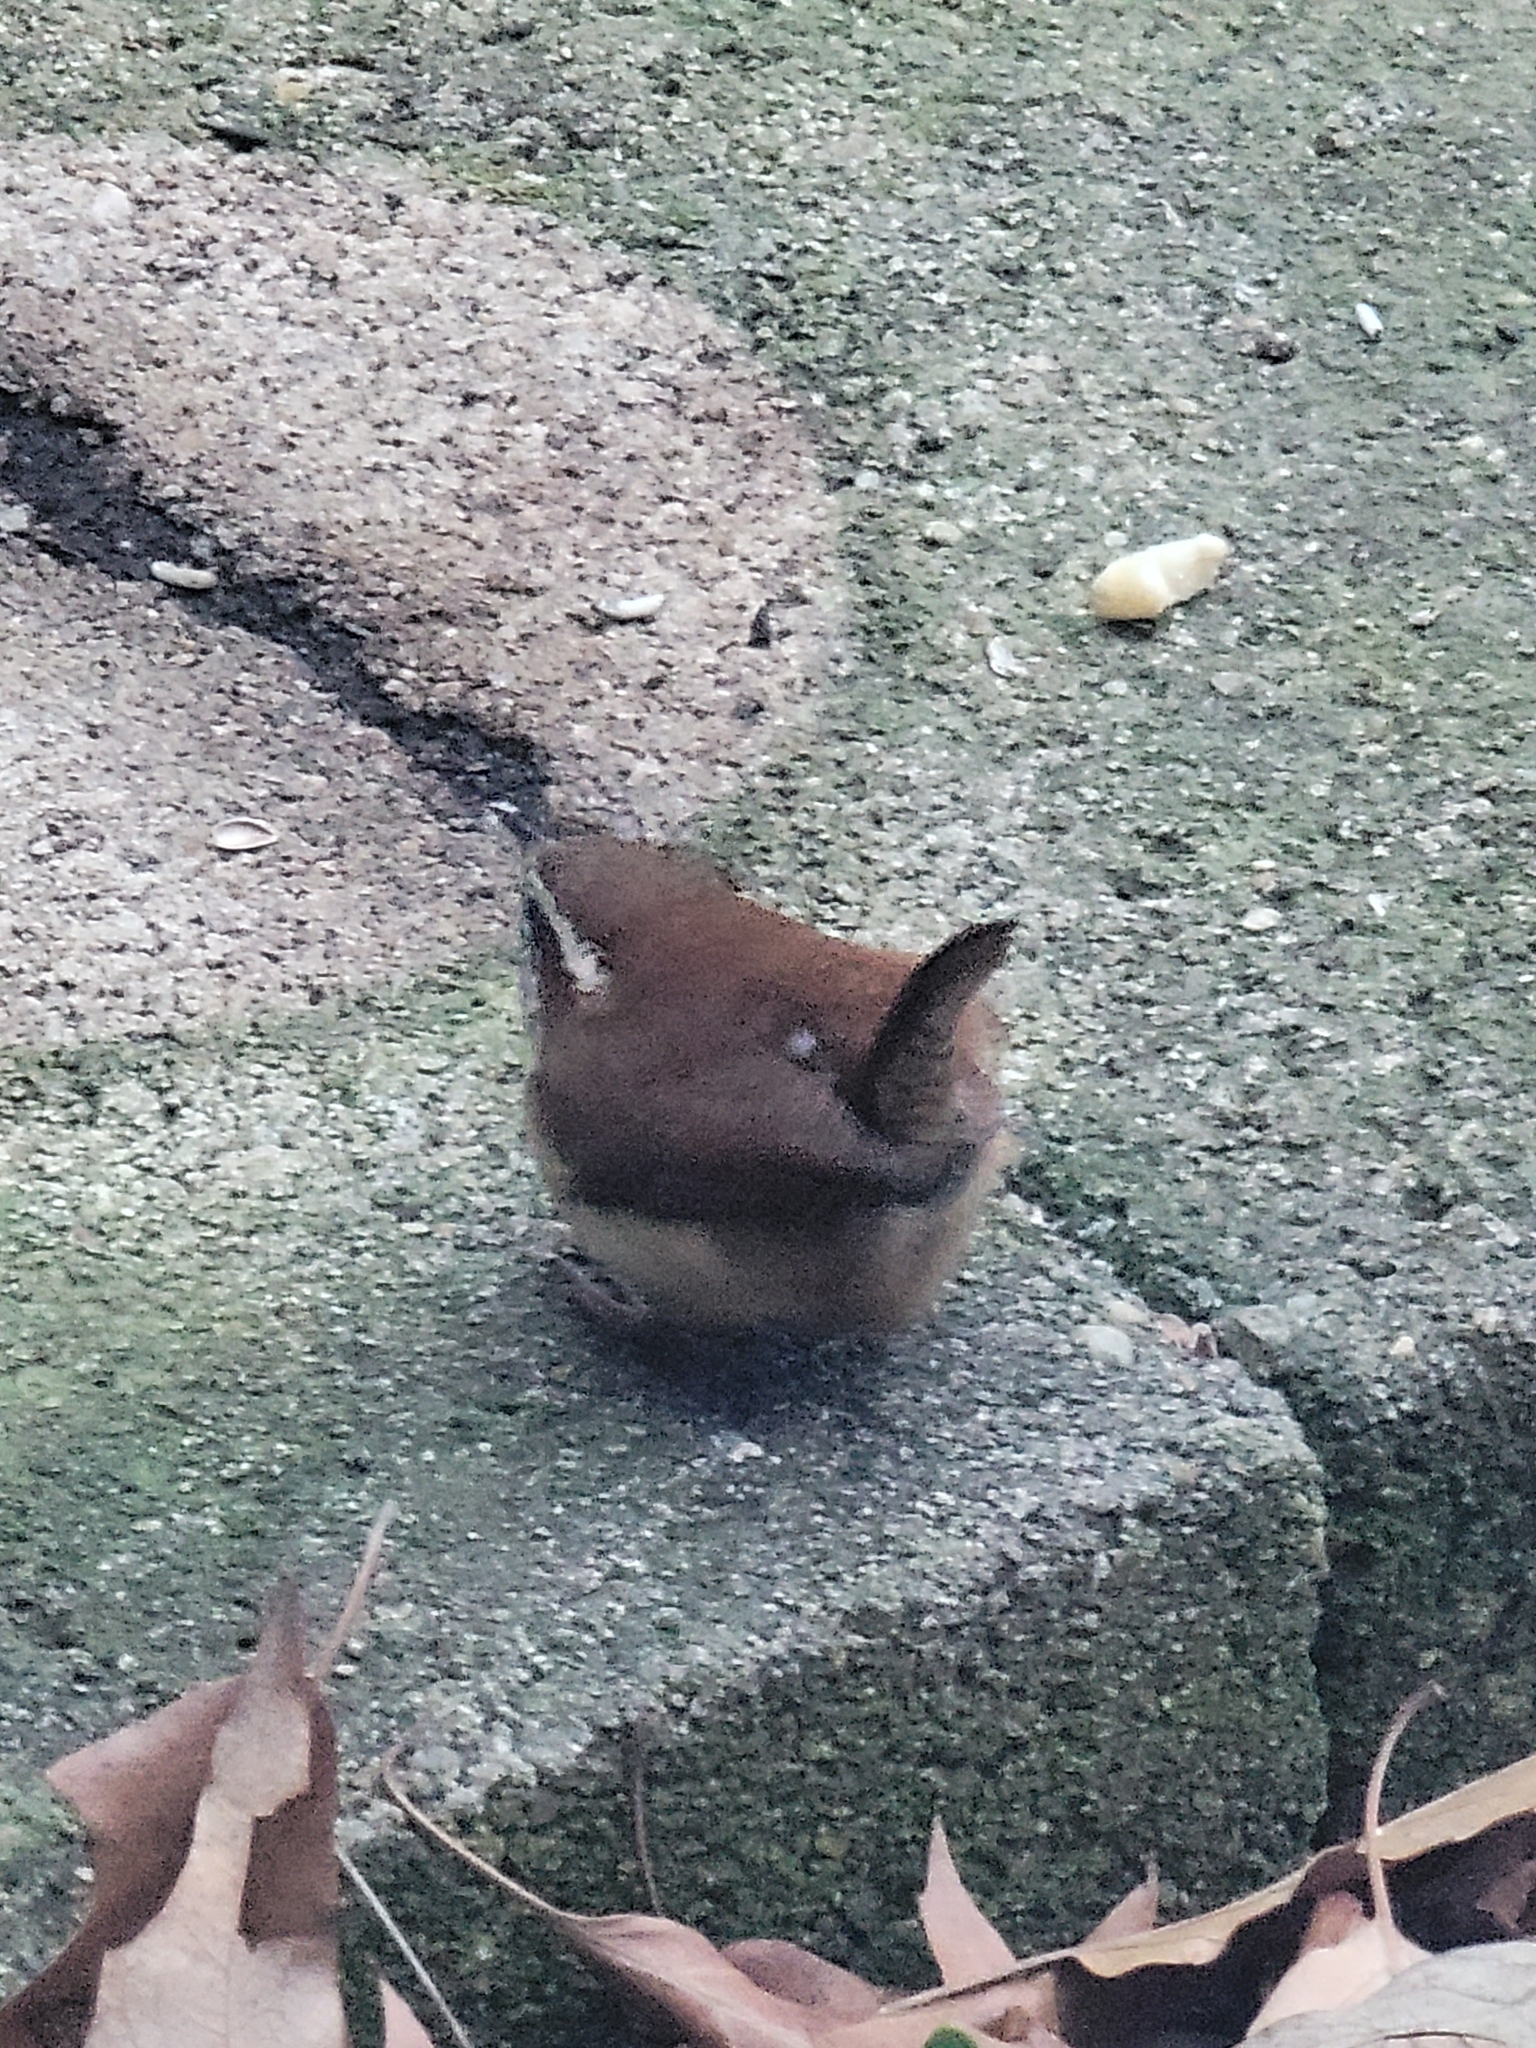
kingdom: Animalia
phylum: Chordata
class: Aves
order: Passeriformes
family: Troglodytidae
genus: Thryothorus
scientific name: Thryothorus ludovicianus
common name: Carolina wren
